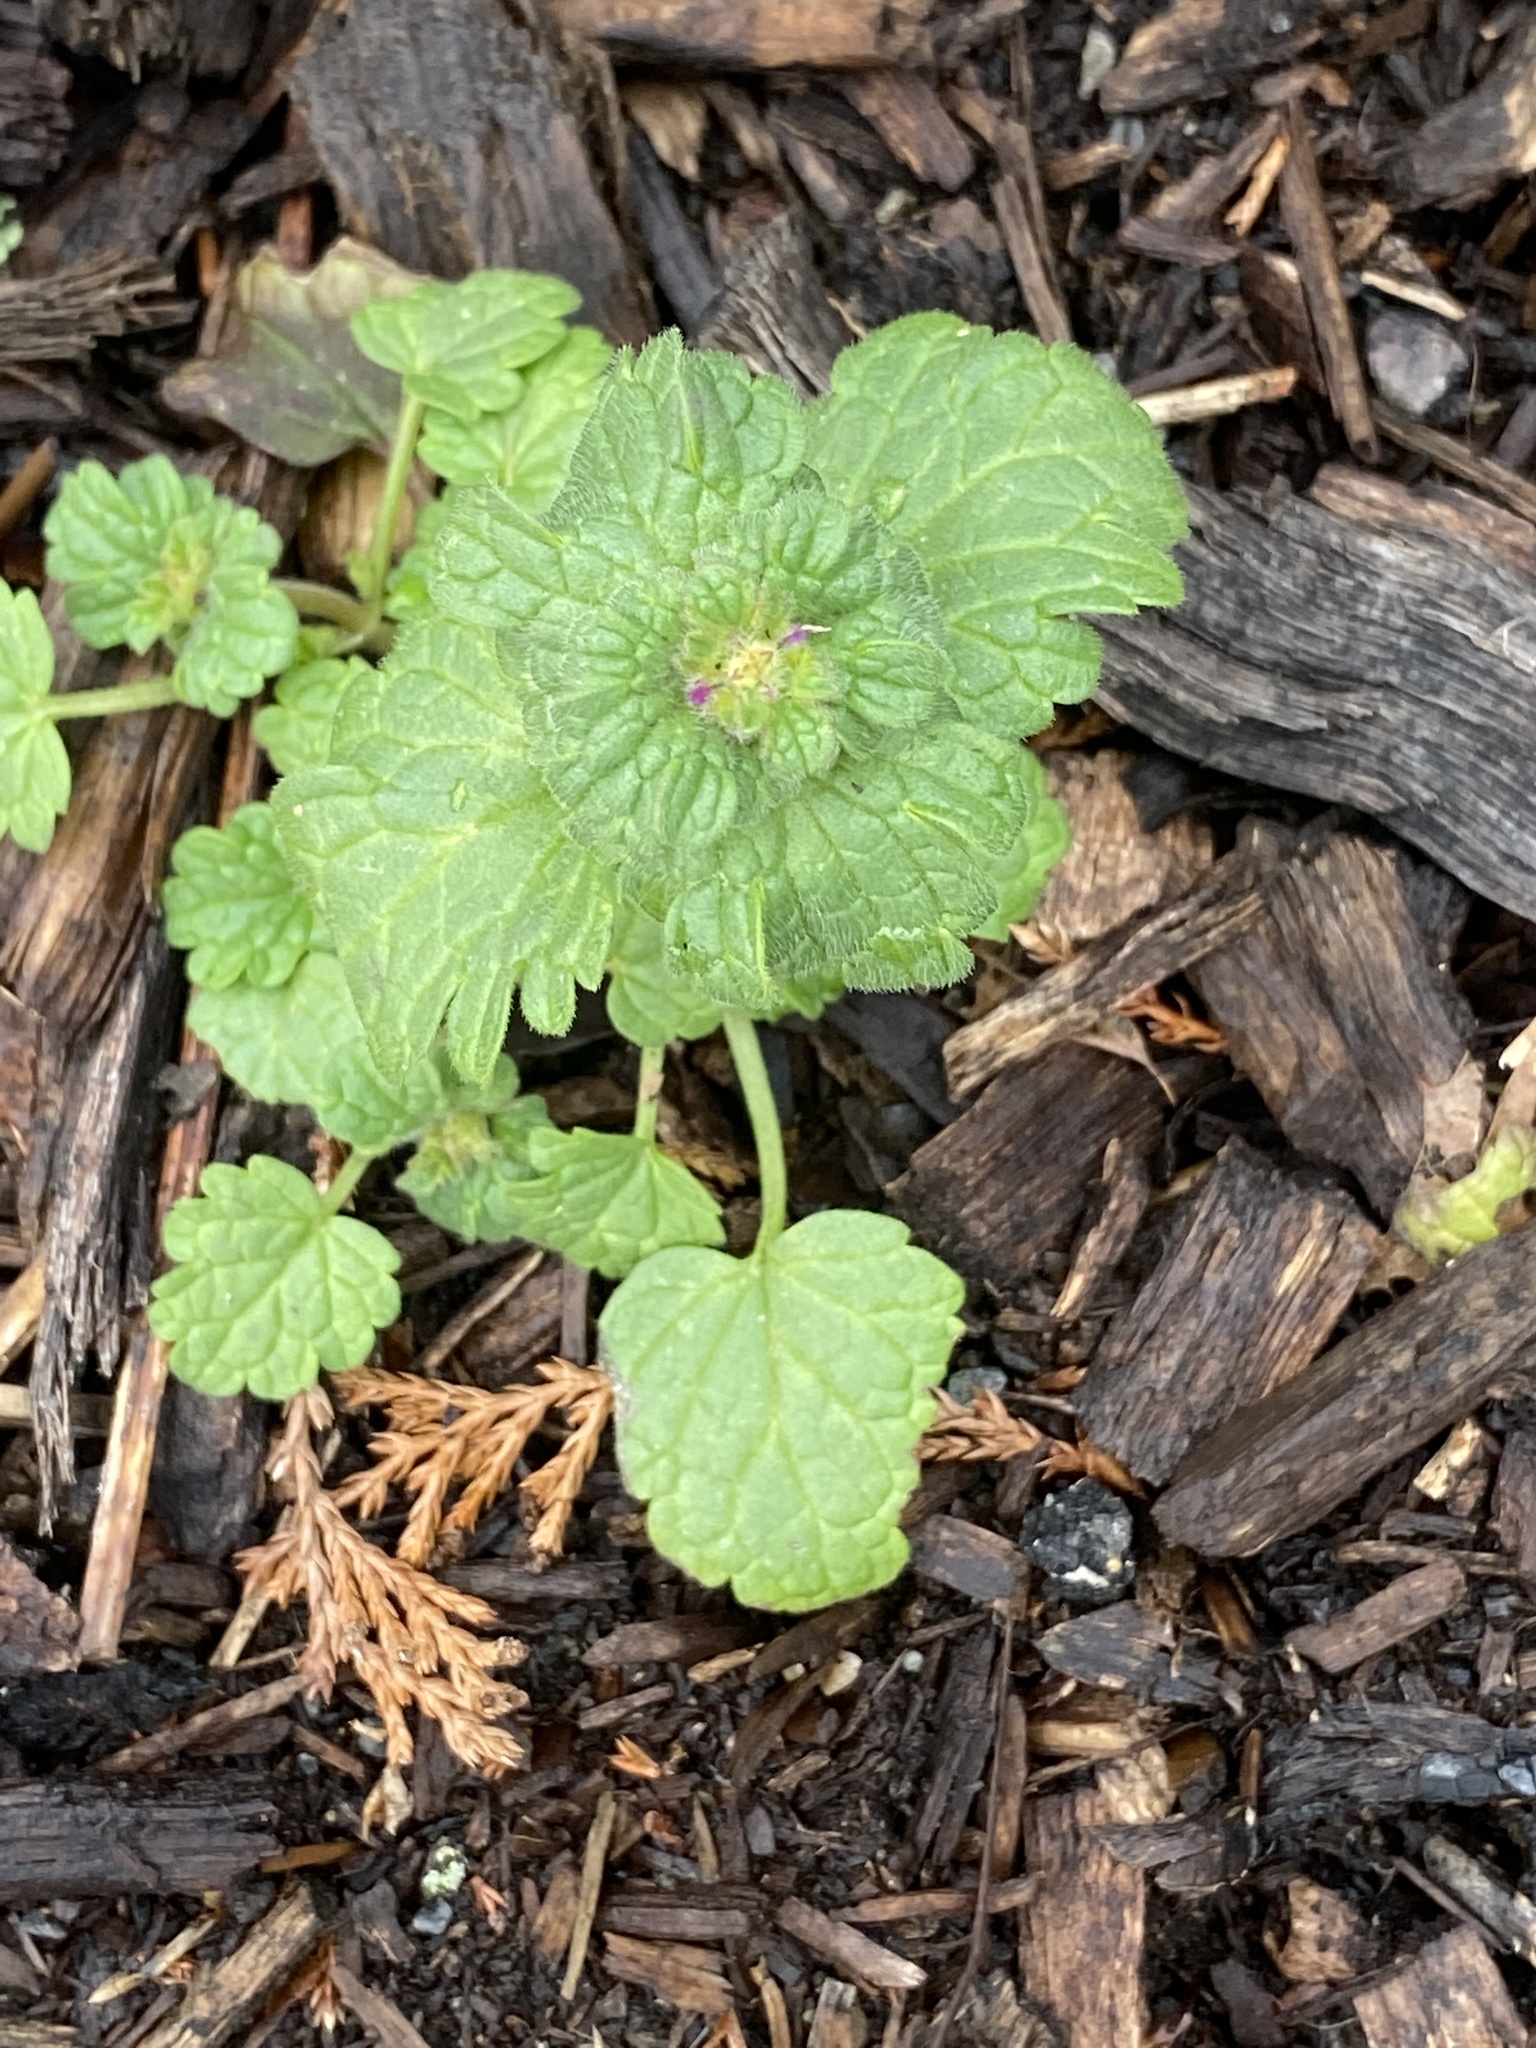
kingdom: Plantae
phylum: Tracheophyta
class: Magnoliopsida
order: Lamiales
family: Lamiaceae
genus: Lamium
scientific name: Lamium amplexicaule
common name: Henbit dead-nettle
